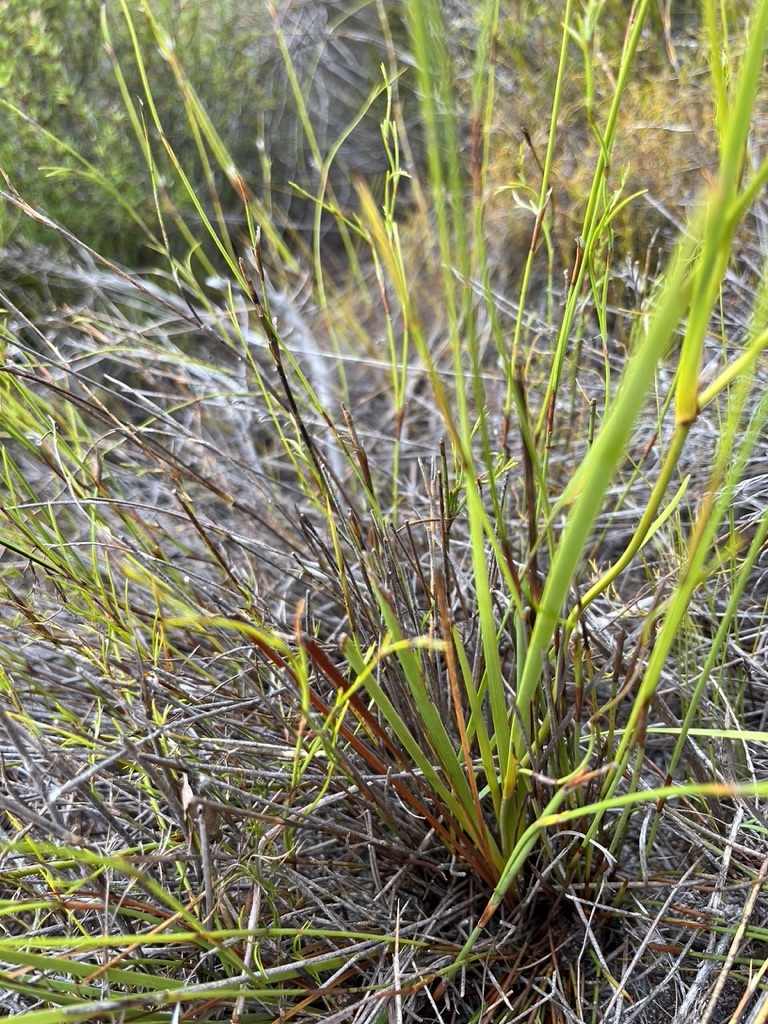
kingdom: Plantae
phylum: Tracheophyta
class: Liliopsida
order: Asparagales
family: Iridaceae
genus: Aristea
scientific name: Aristea oligocephala
